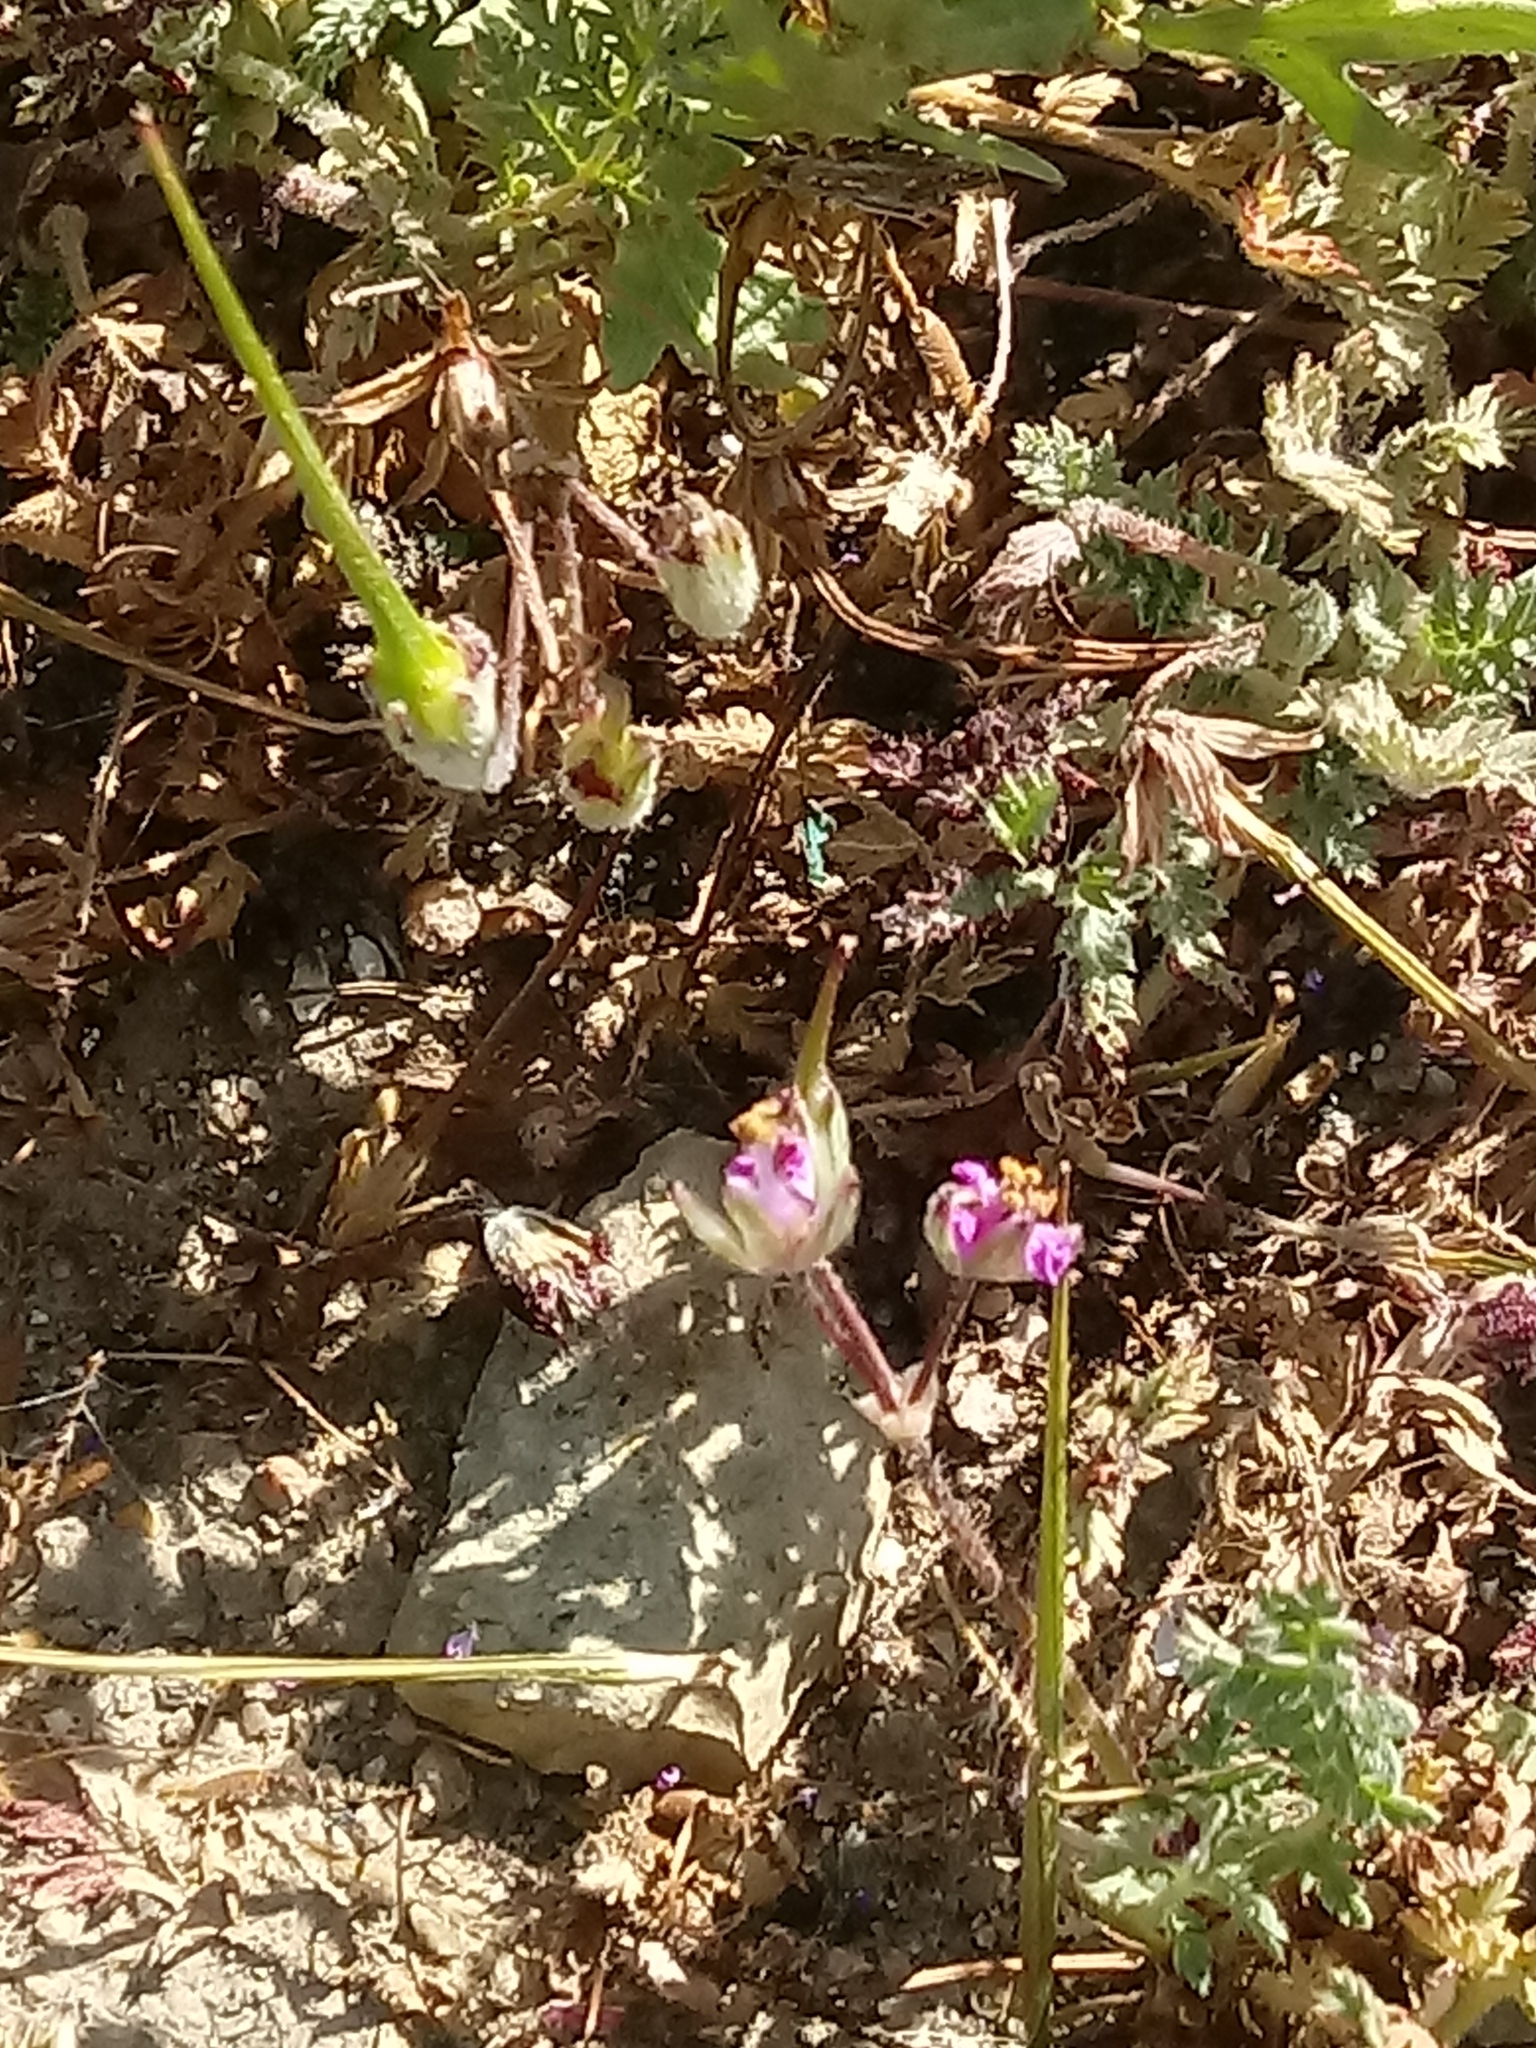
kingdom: Plantae
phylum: Tracheophyta
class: Magnoliopsida
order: Geraniales
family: Geraniaceae
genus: Erodium
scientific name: Erodium cicutarium
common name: Common stork's-bill
